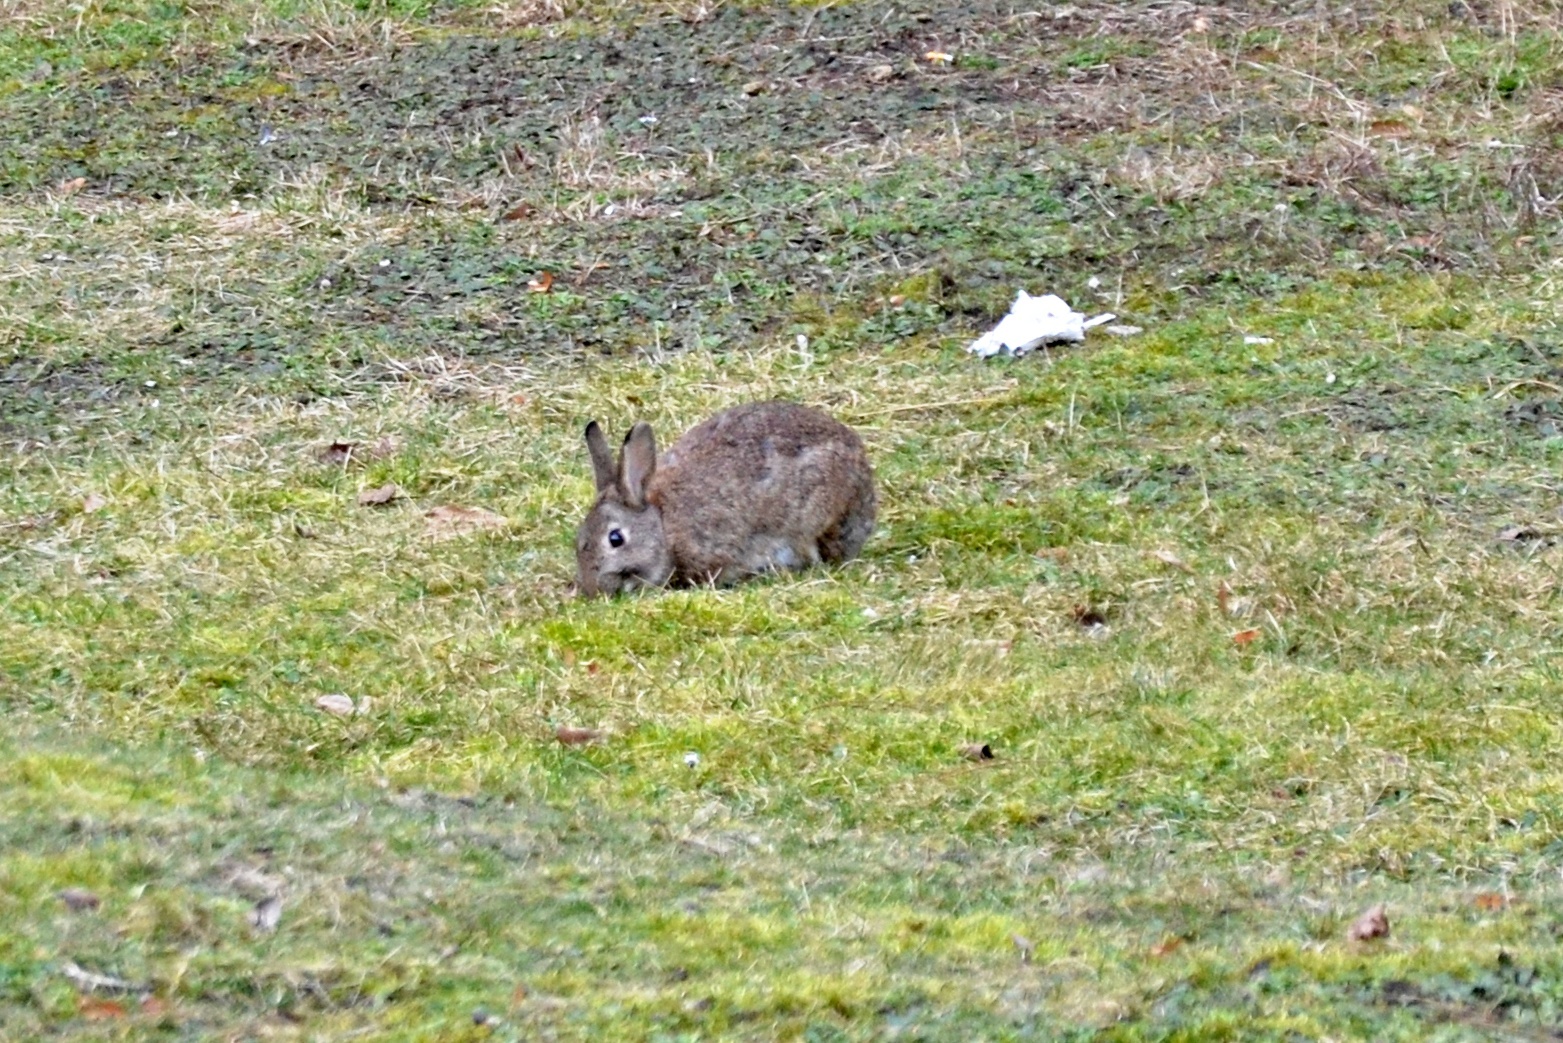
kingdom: Animalia
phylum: Chordata
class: Mammalia
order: Lagomorpha
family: Leporidae
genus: Oryctolagus
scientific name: Oryctolagus cuniculus
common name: European rabbit
